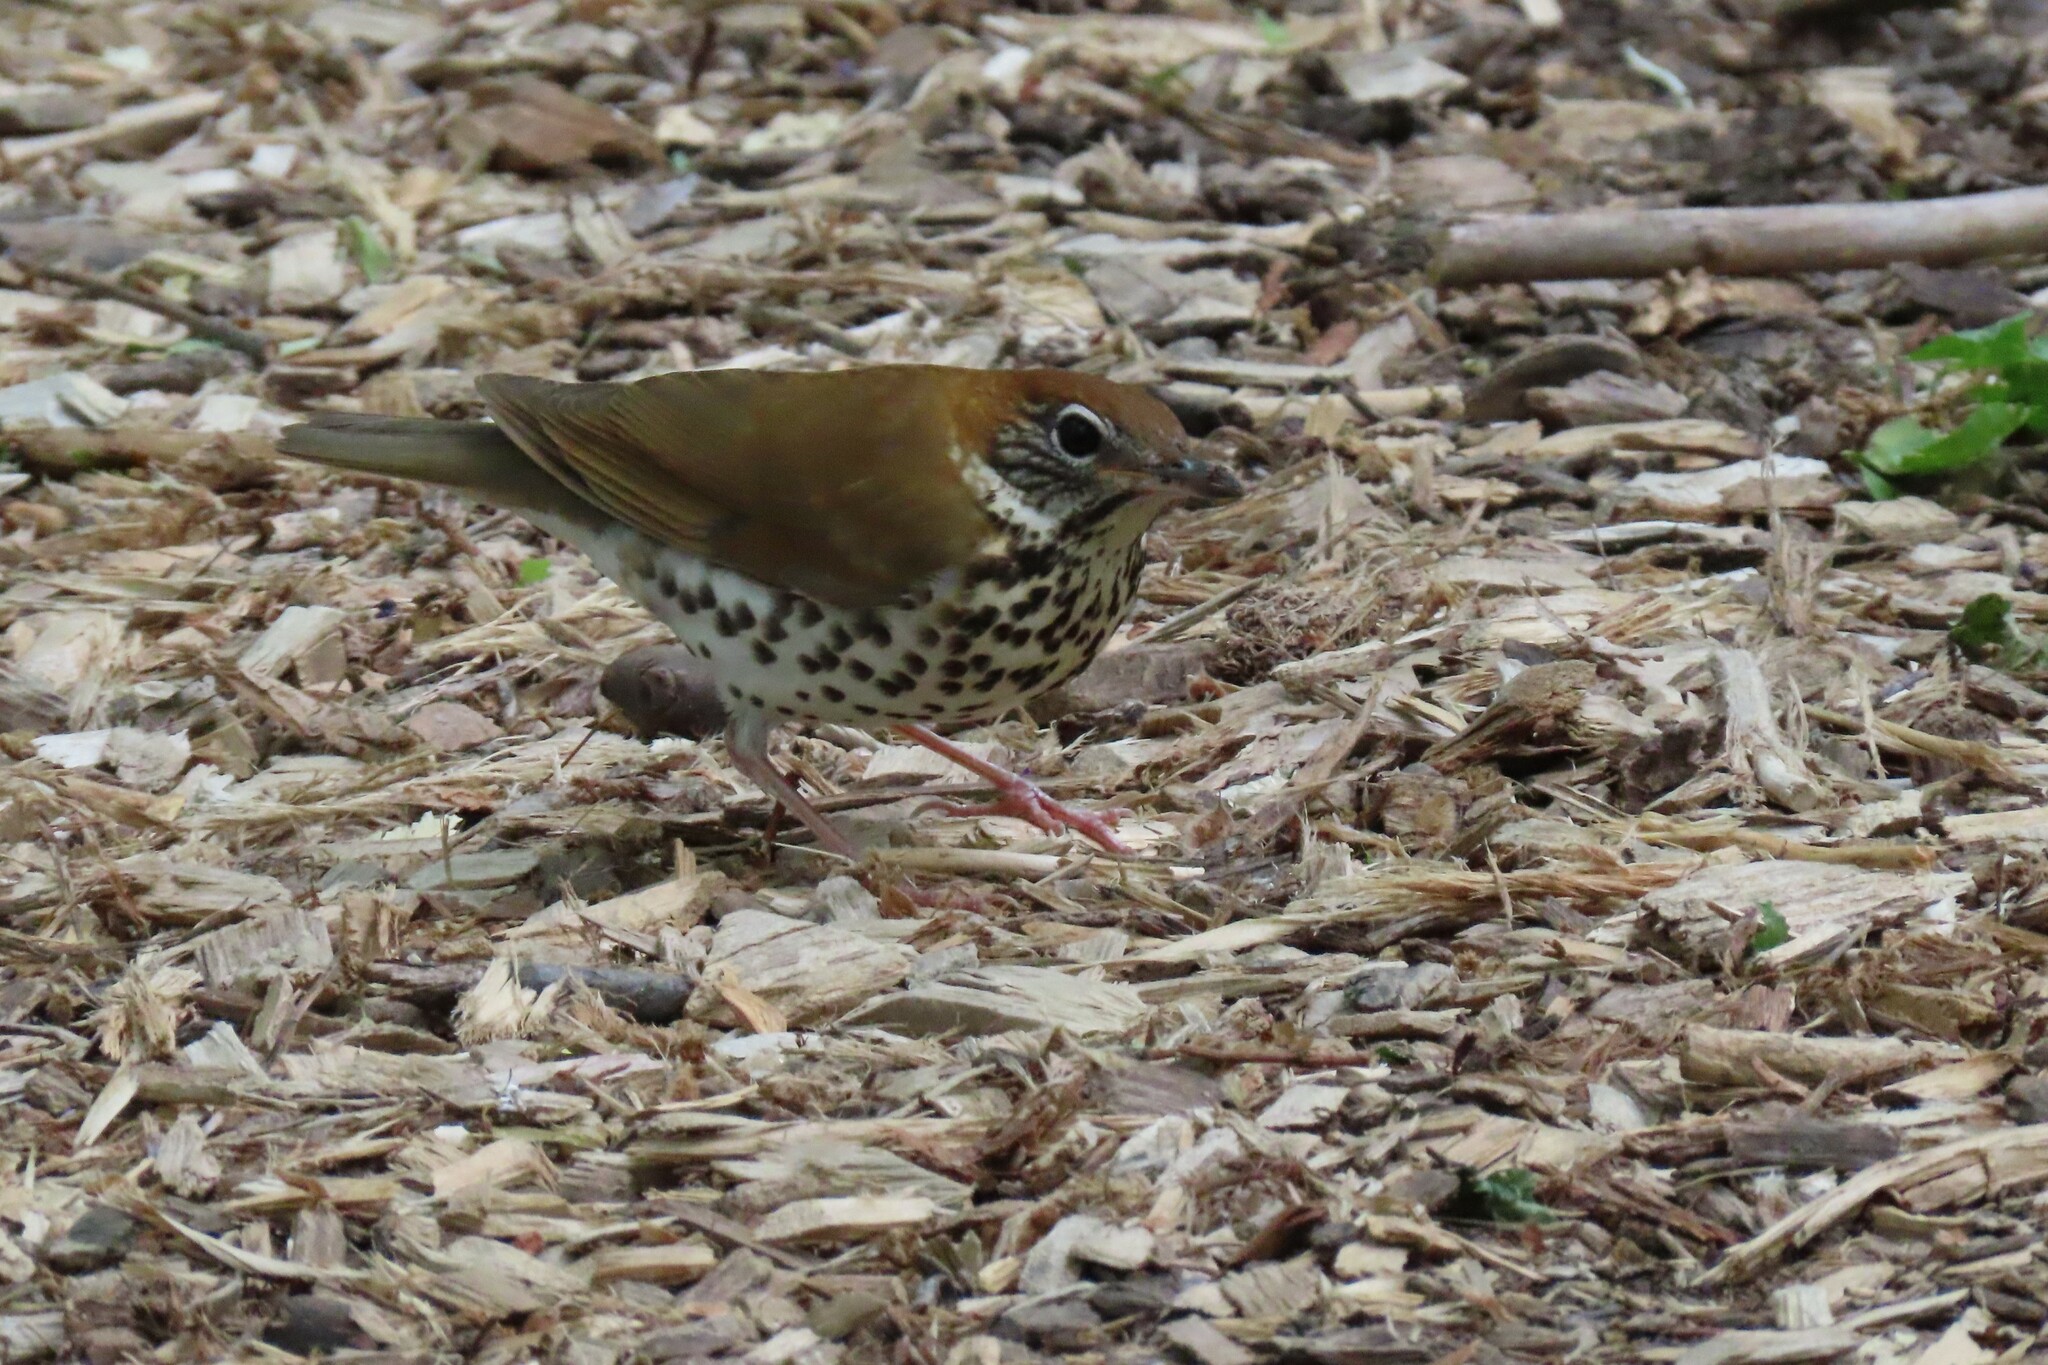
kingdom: Animalia
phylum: Chordata
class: Aves
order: Passeriformes
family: Turdidae
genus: Hylocichla
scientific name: Hylocichla mustelina
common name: Wood thrush
